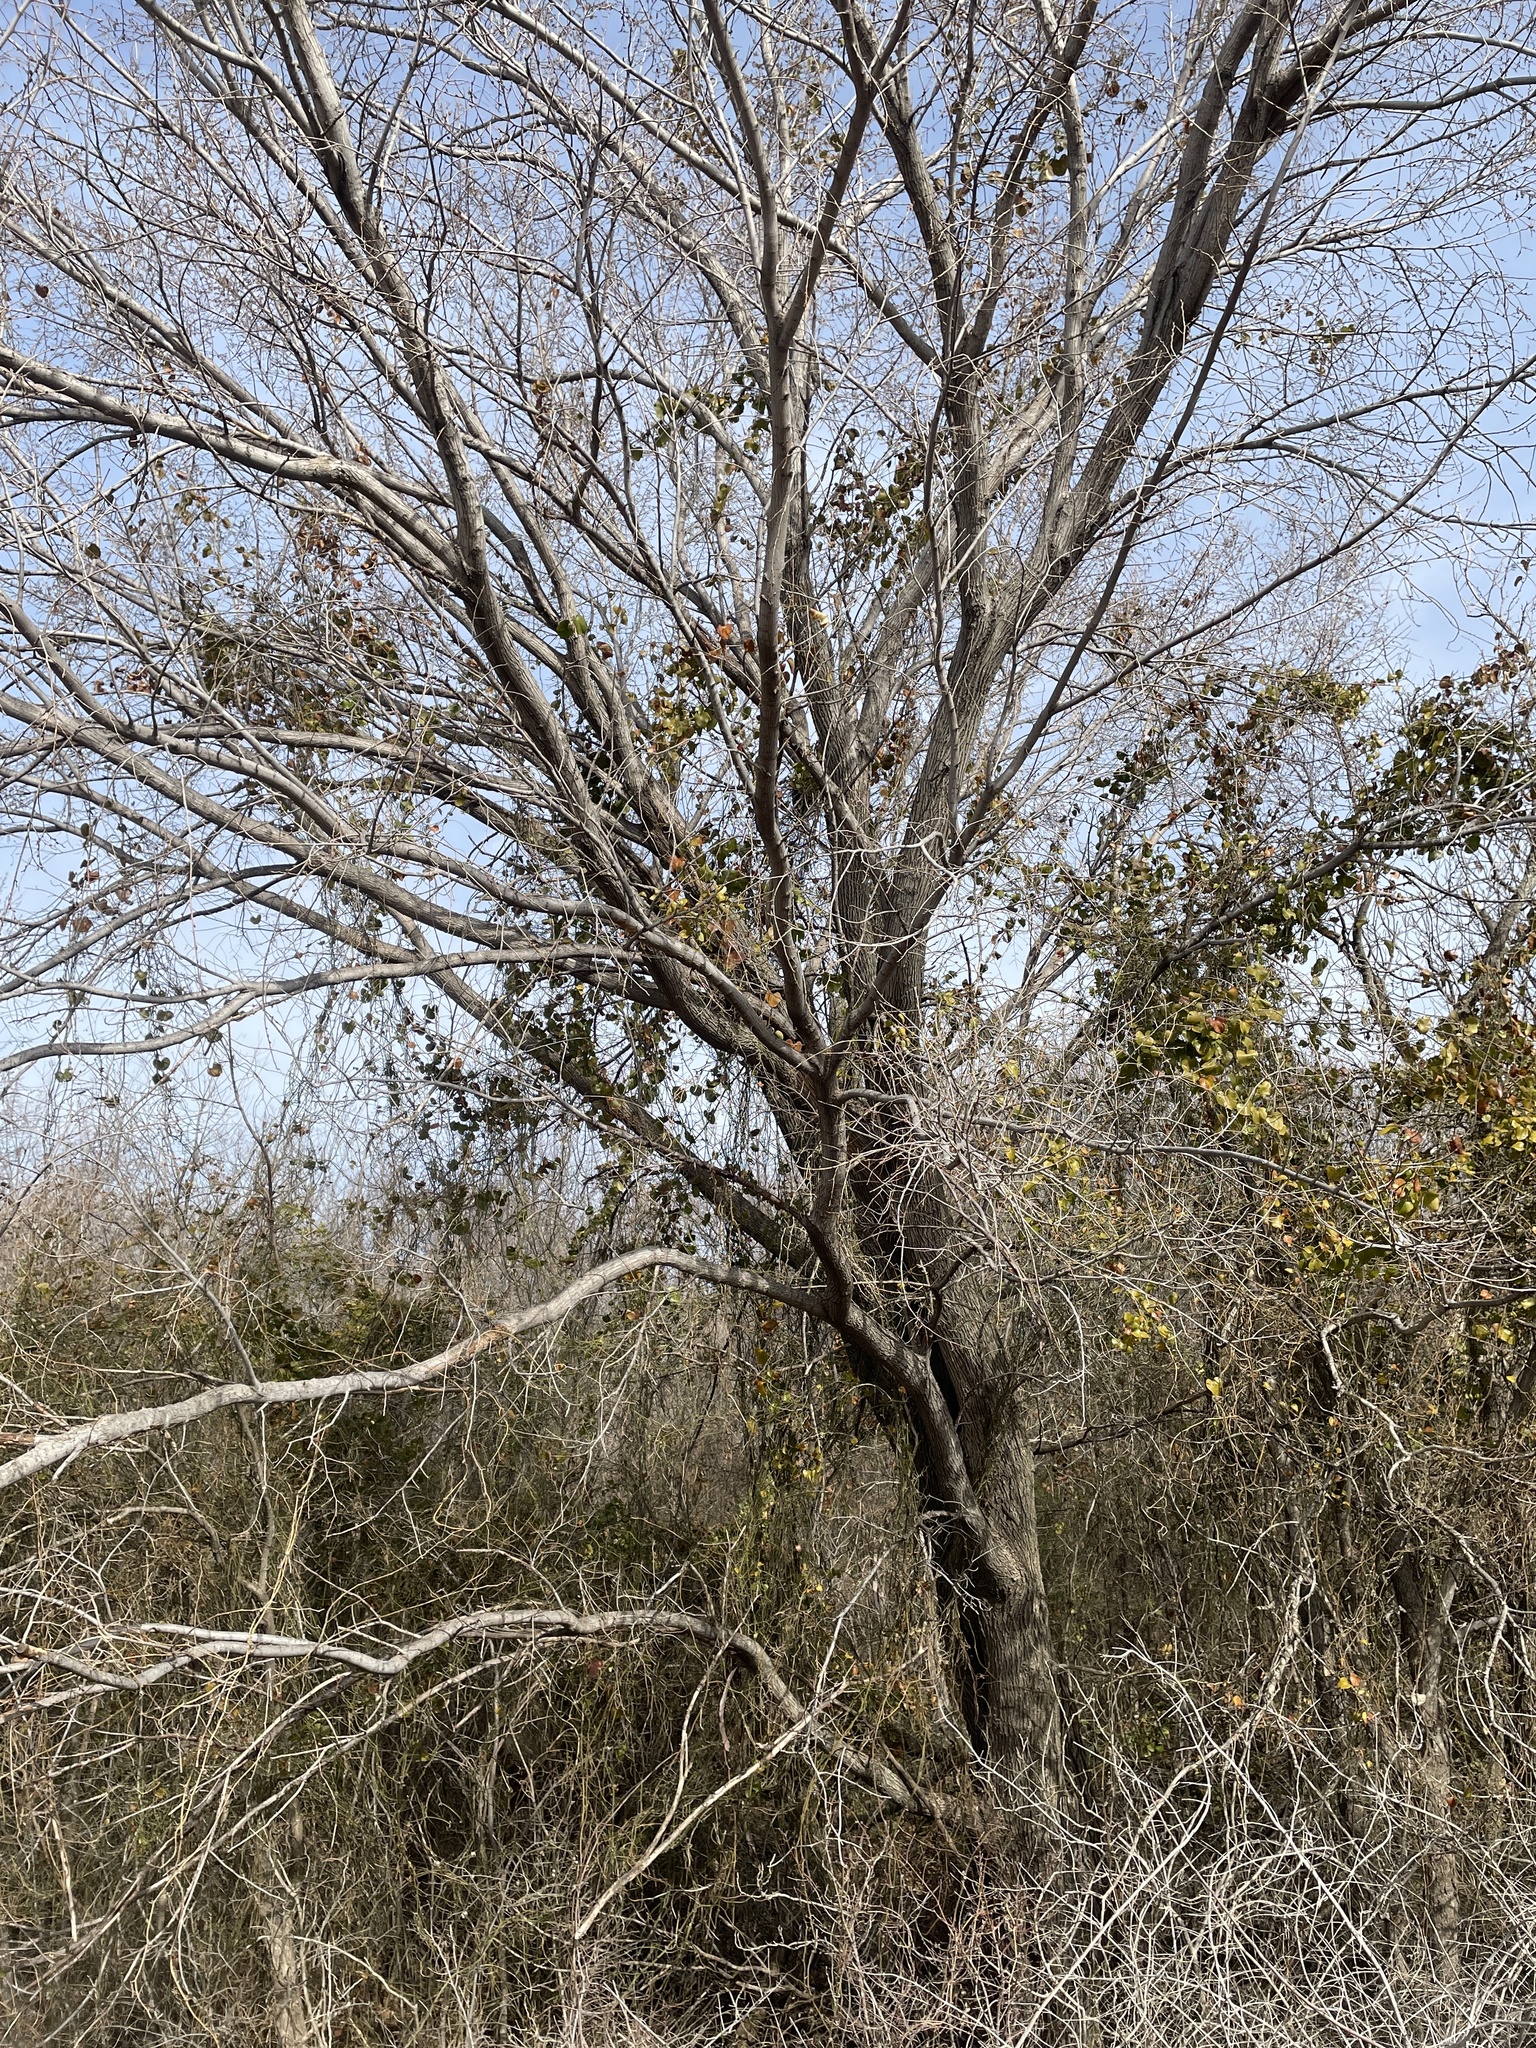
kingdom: Plantae
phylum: Tracheophyta
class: Magnoliopsida
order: Rosales
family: Ulmaceae
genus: Ulmus
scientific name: Ulmus americana
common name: American elm
